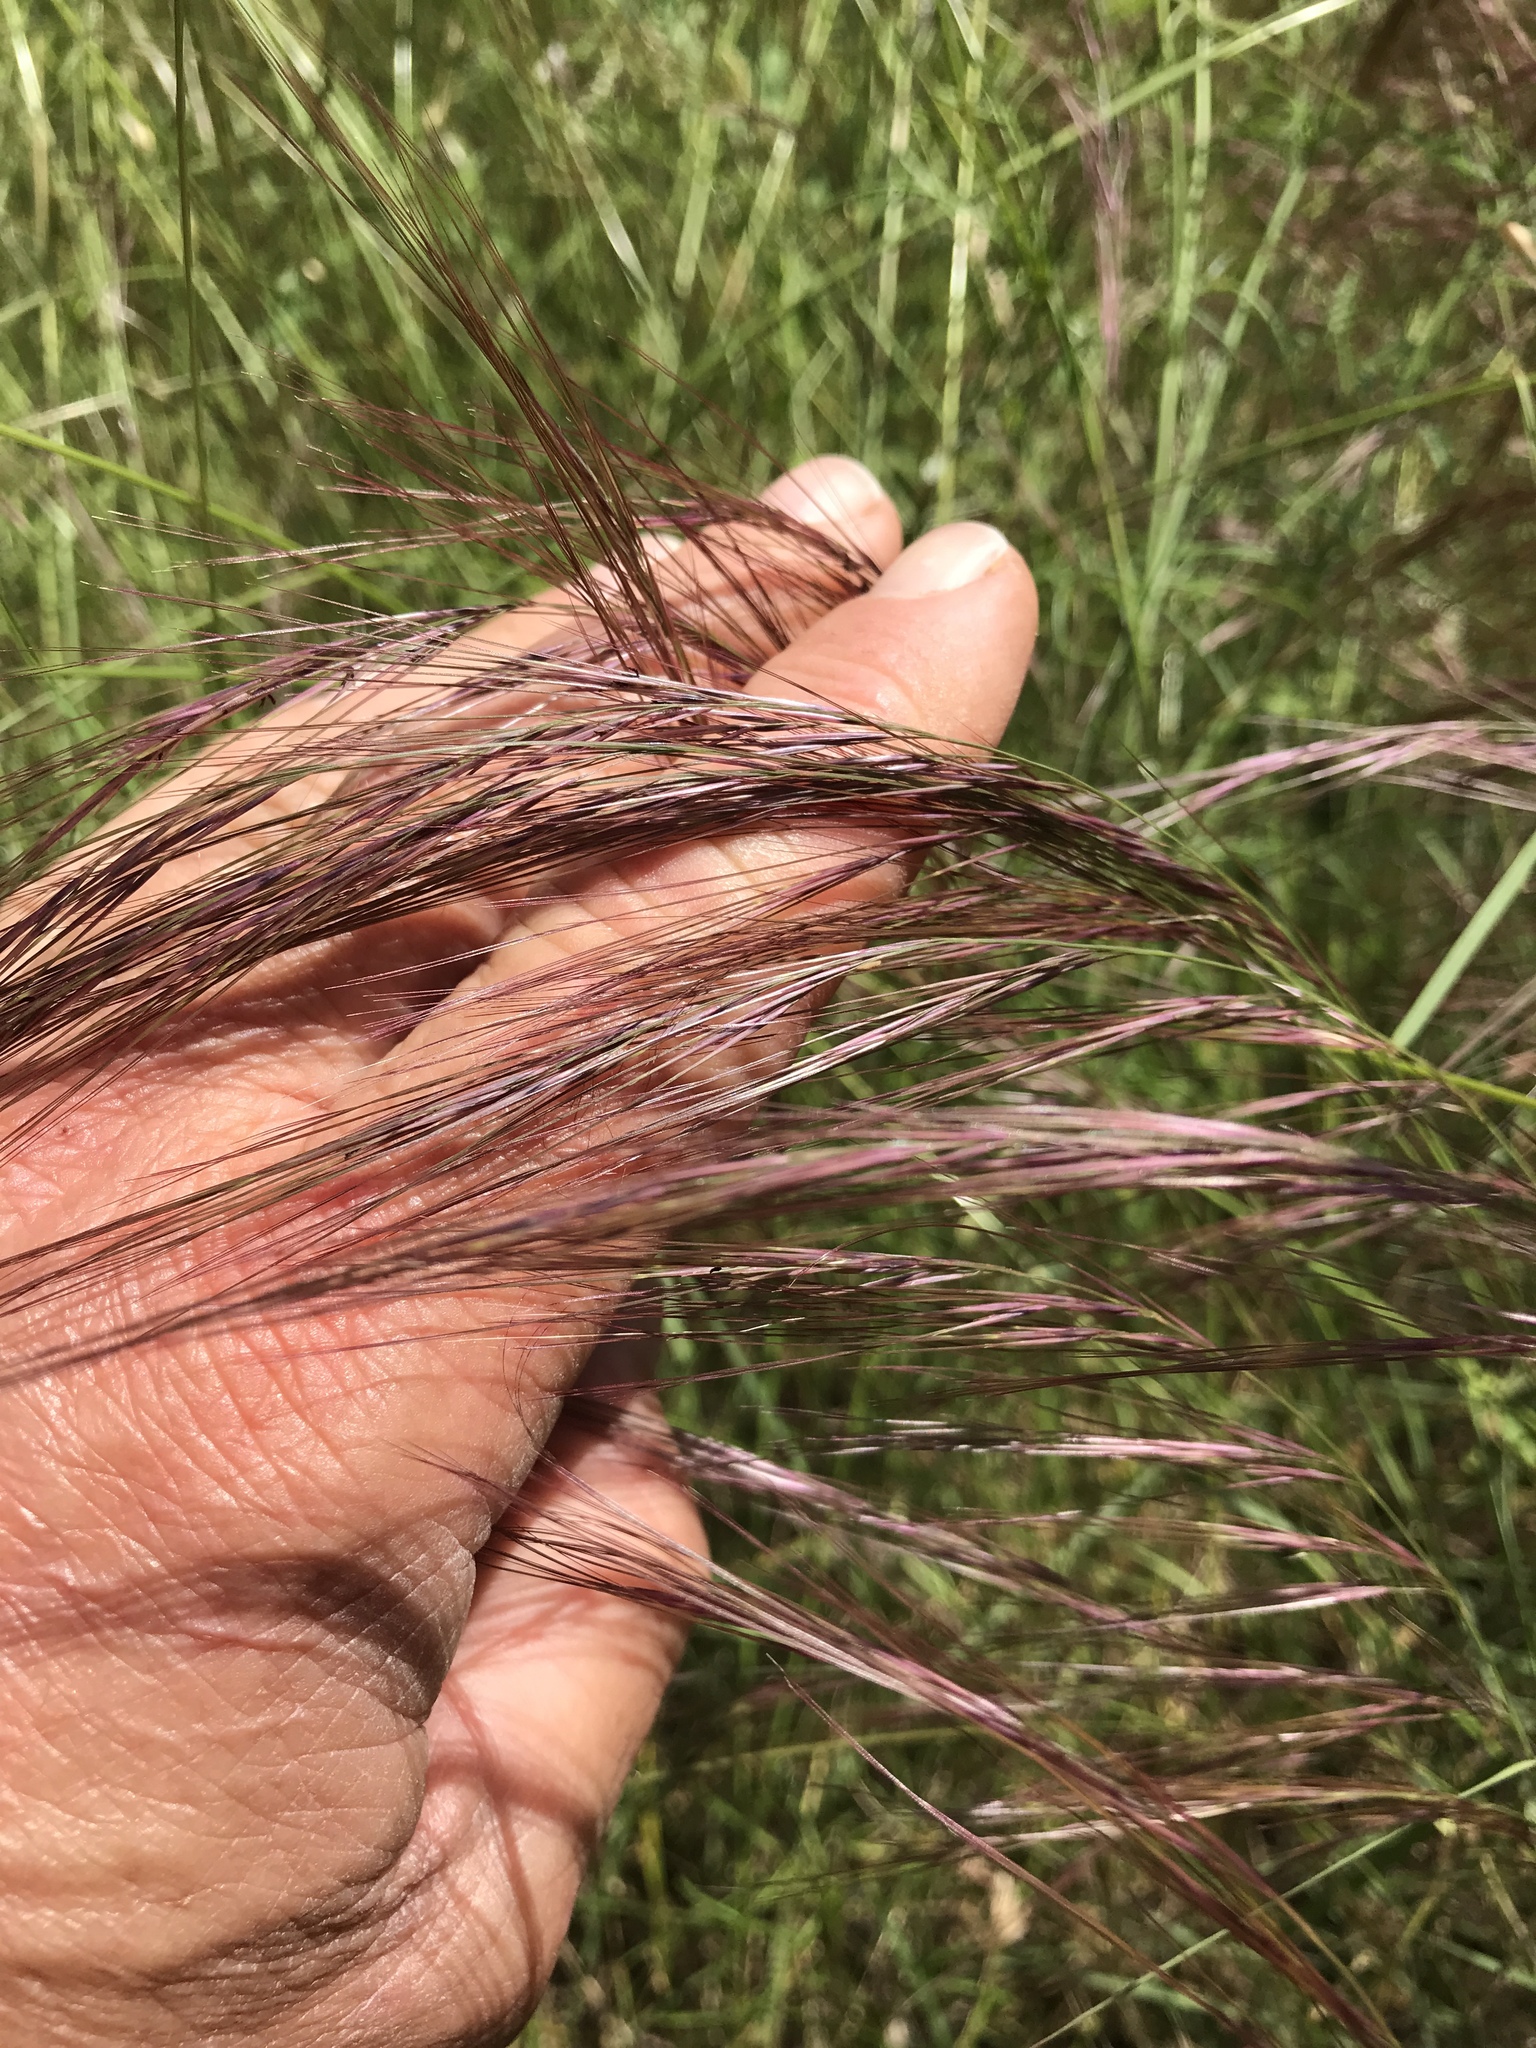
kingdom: Plantae
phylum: Tracheophyta
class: Liliopsida
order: Poales
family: Poaceae
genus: Aristida
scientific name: Aristida purpurea
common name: Purple threeawn
